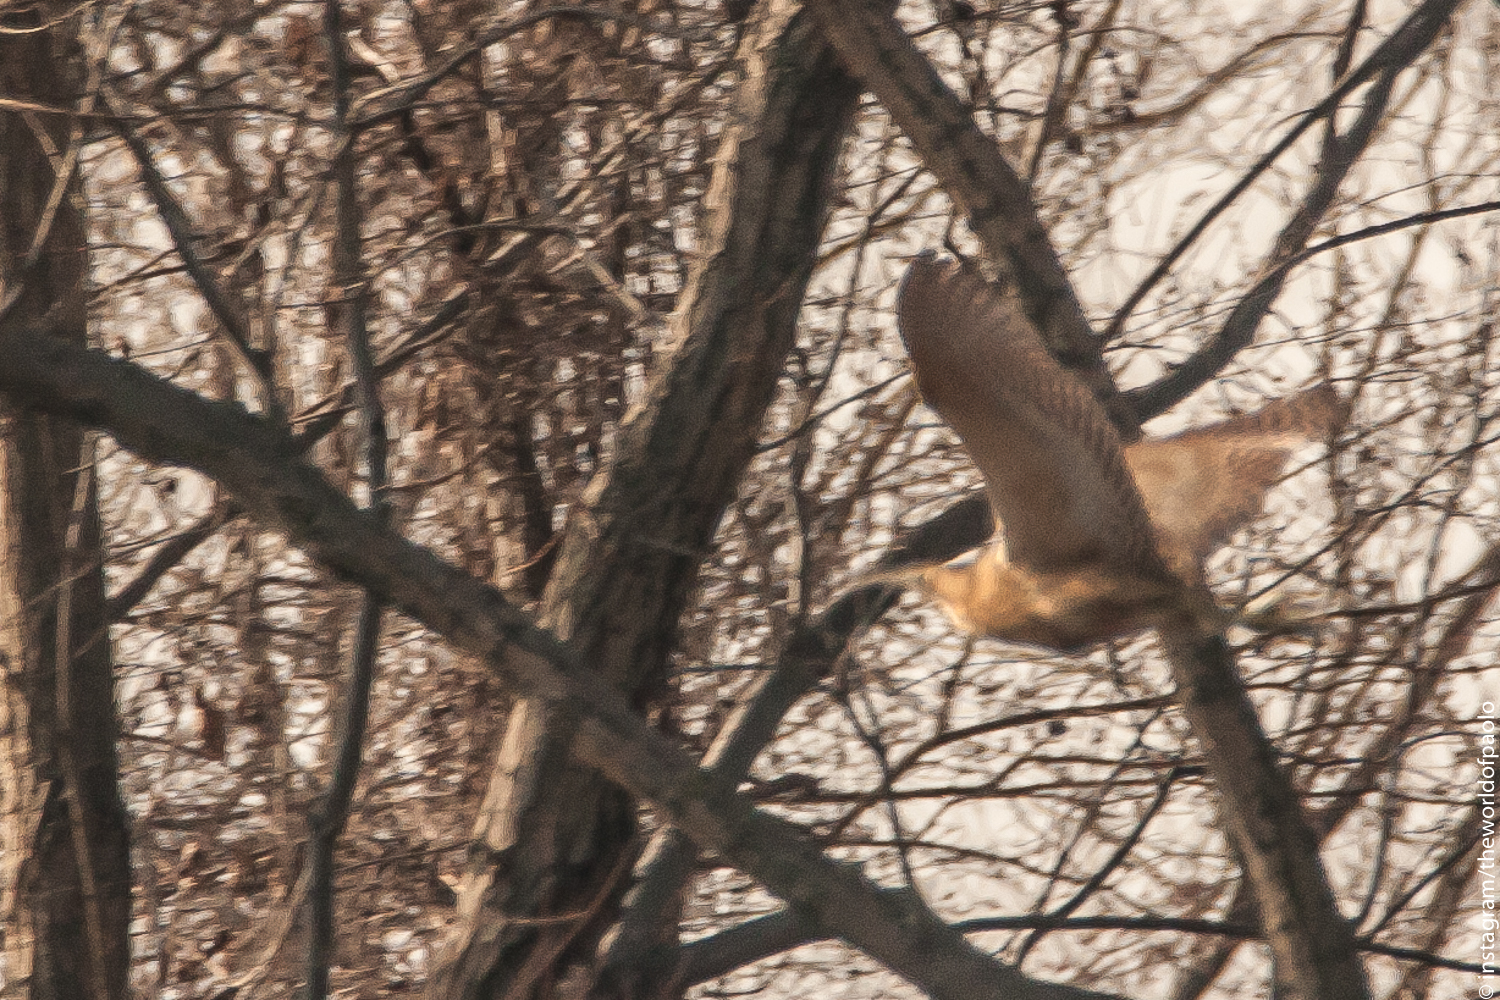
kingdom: Animalia
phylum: Chordata
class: Aves
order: Pelecaniformes
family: Ardeidae
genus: Botaurus
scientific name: Botaurus stellaris
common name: Eurasian bittern
